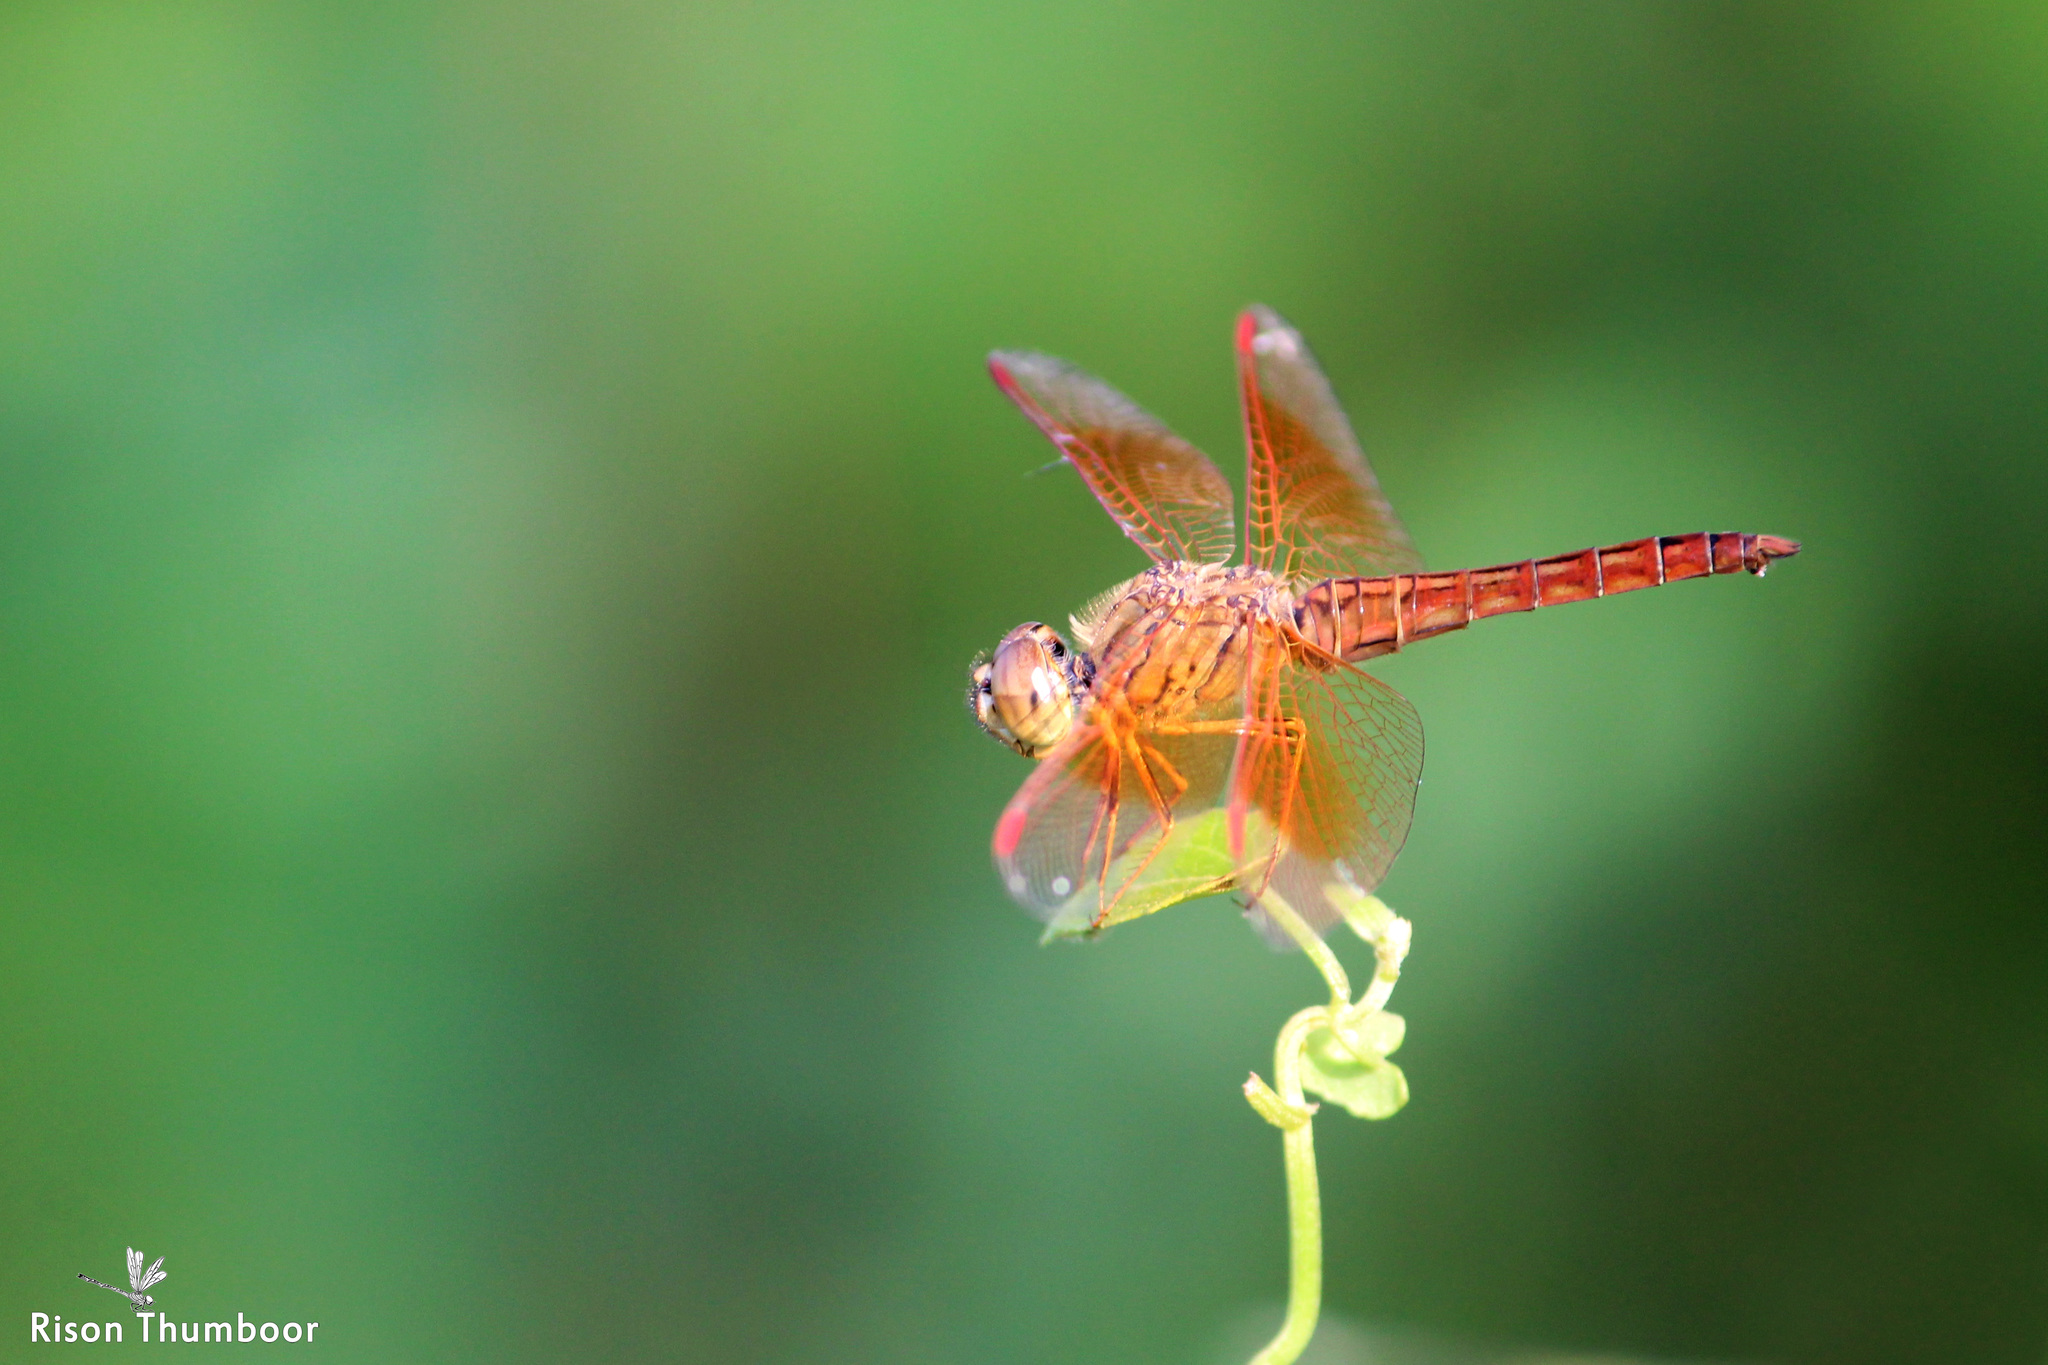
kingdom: Animalia
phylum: Arthropoda
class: Insecta
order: Odonata
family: Libellulidae
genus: Brachythemis
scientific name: Brachythemis contaminata
